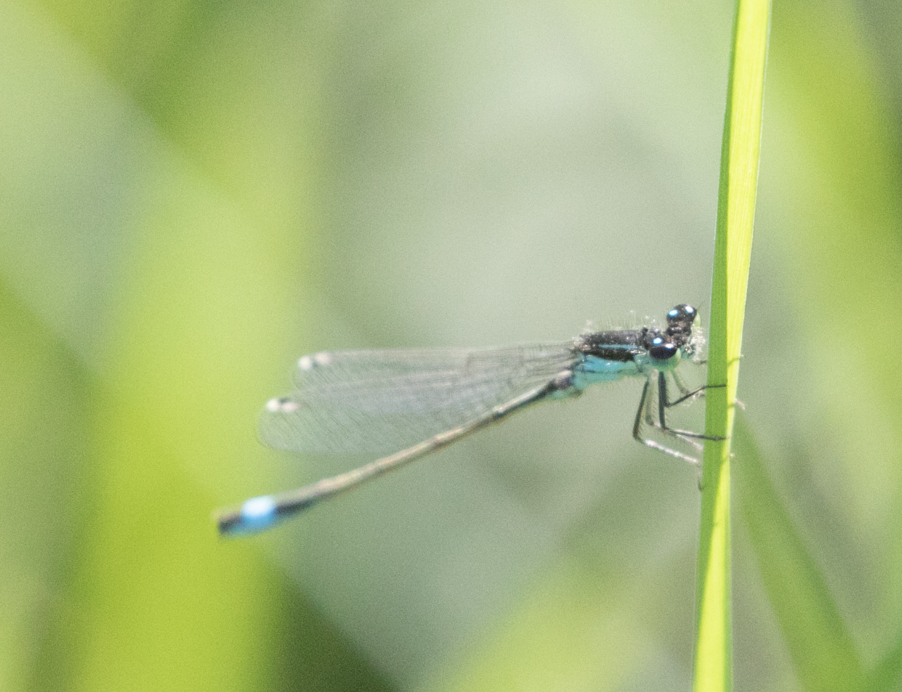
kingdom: Animalia
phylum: Arthropoda
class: Insecta
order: Odonata
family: Coenagrionidae
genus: Ischnura
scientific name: Ischnura elegans
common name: Blue-tailed damselfly
